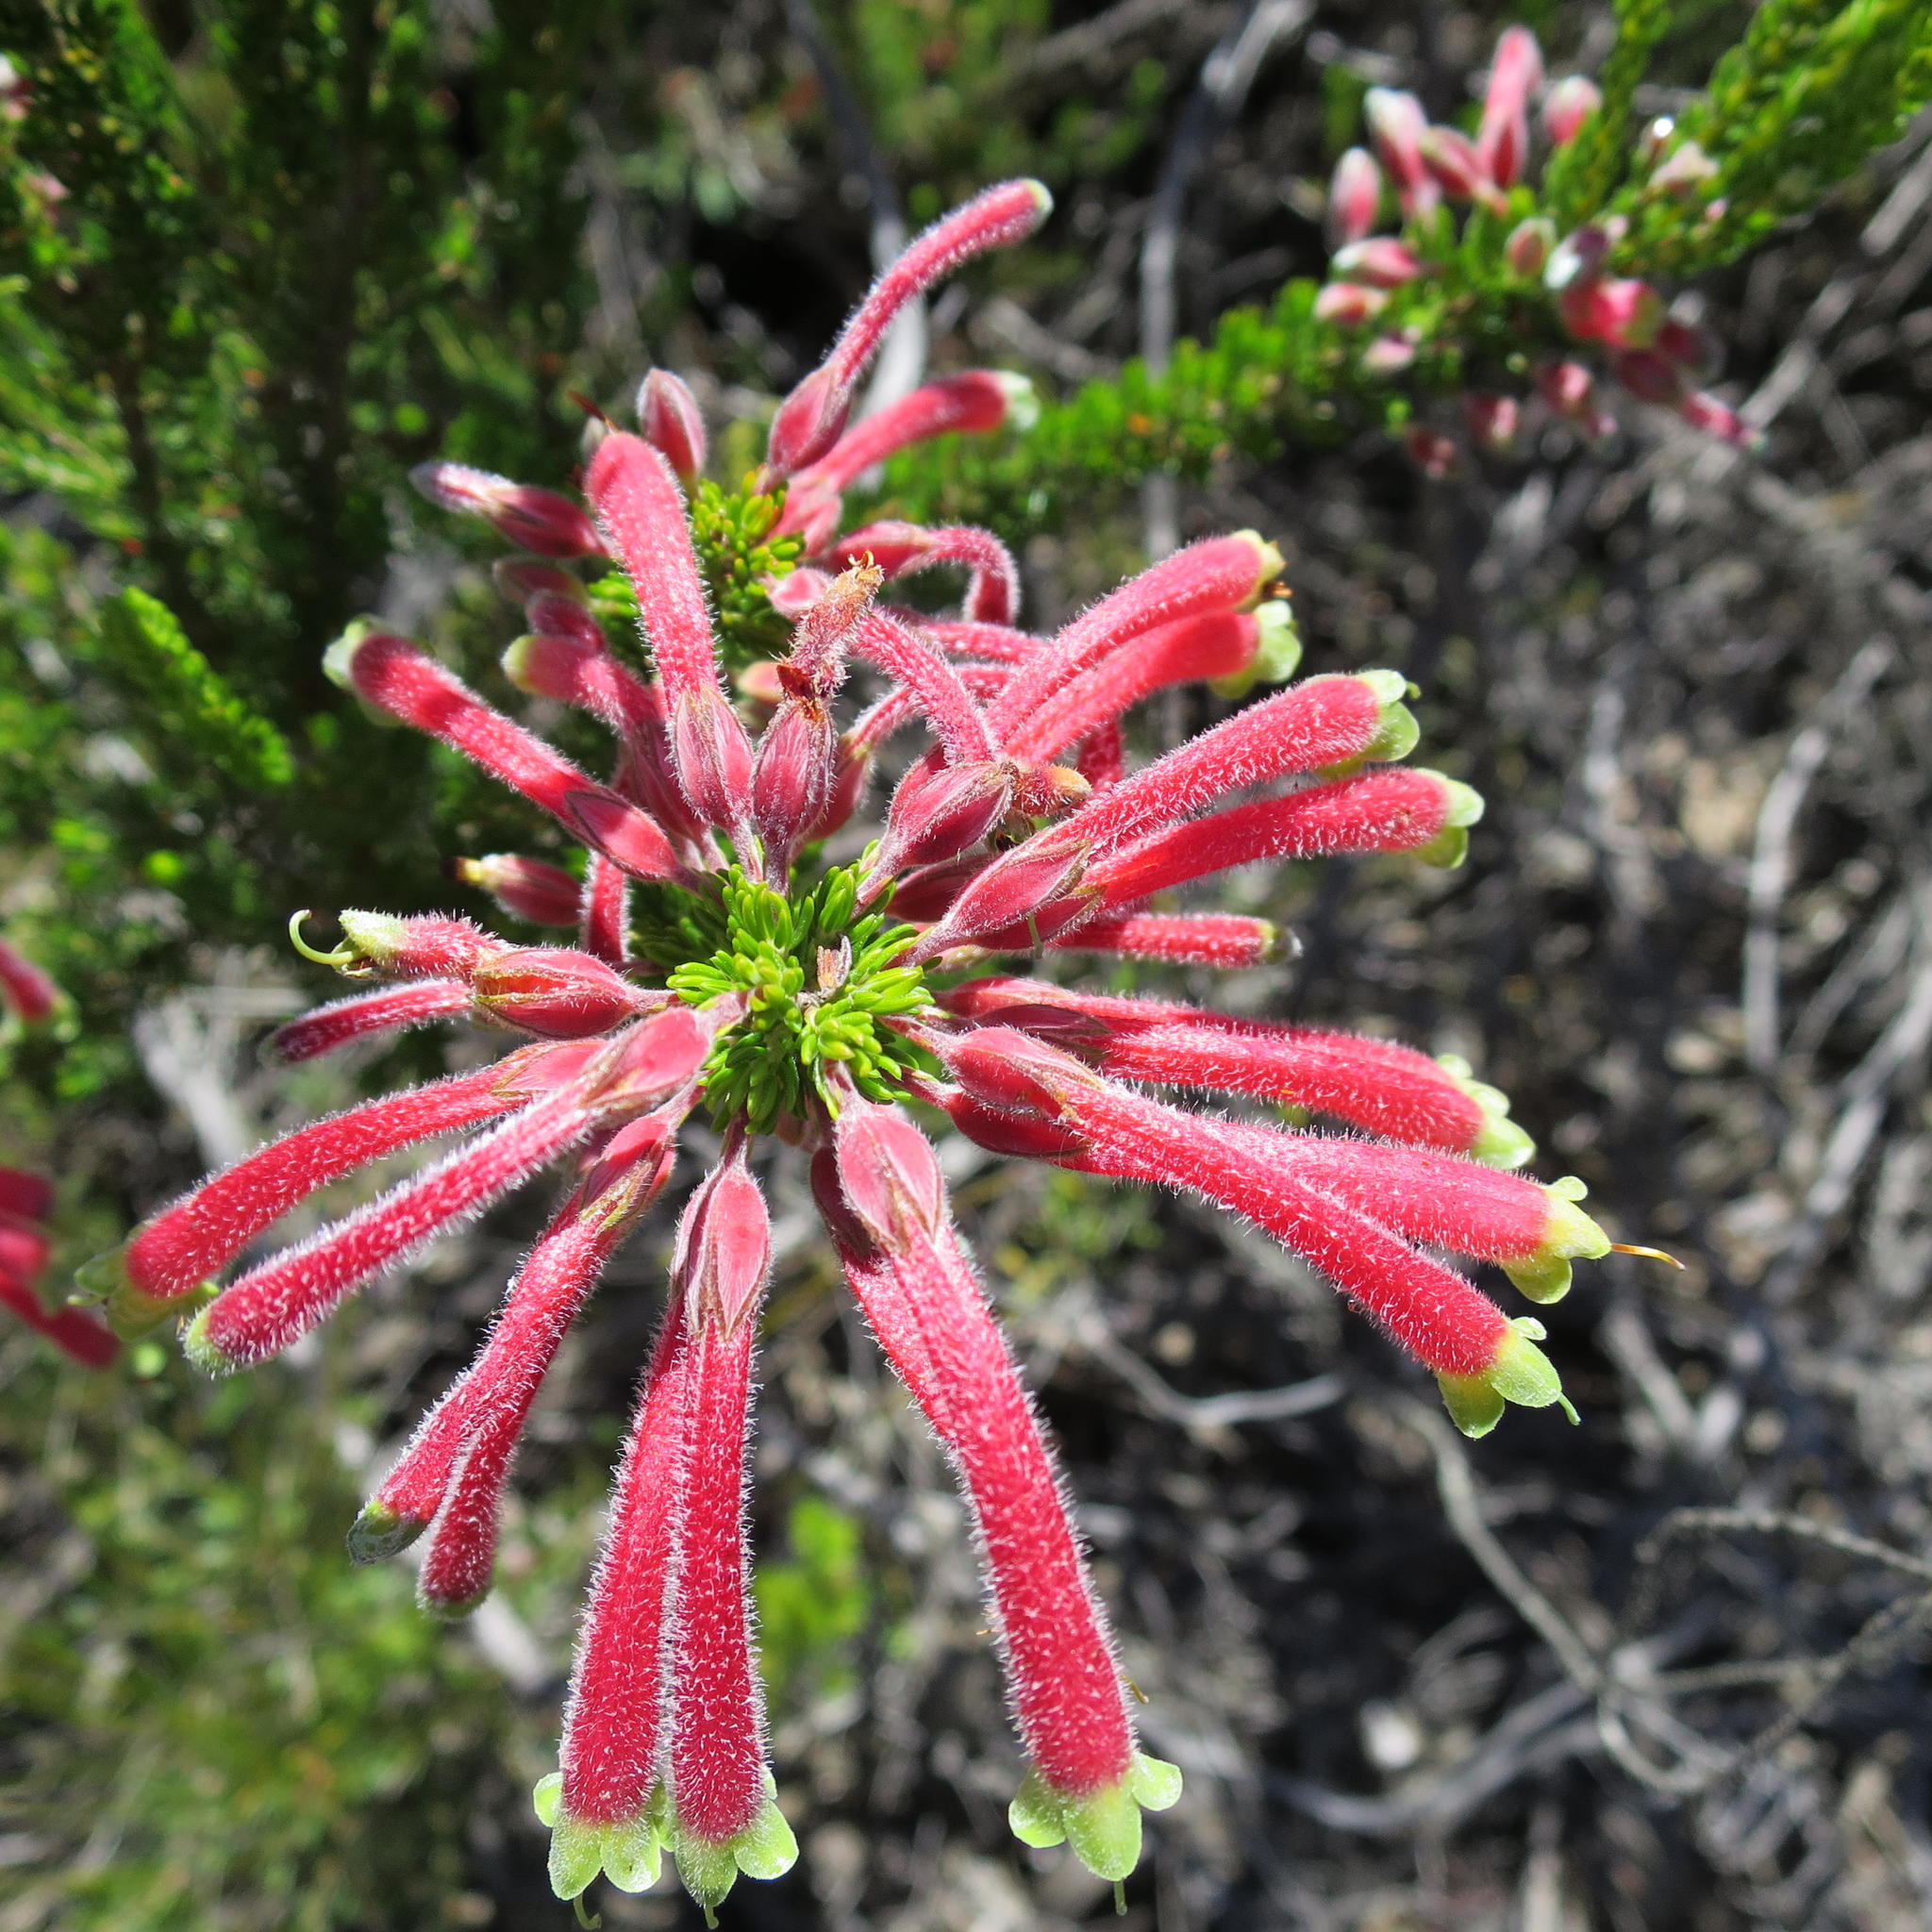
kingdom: Plantae
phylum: Tracheophyta
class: Magnoliopsida
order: Ericales
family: Ericaceae
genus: Erica
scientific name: Erica densifolia
